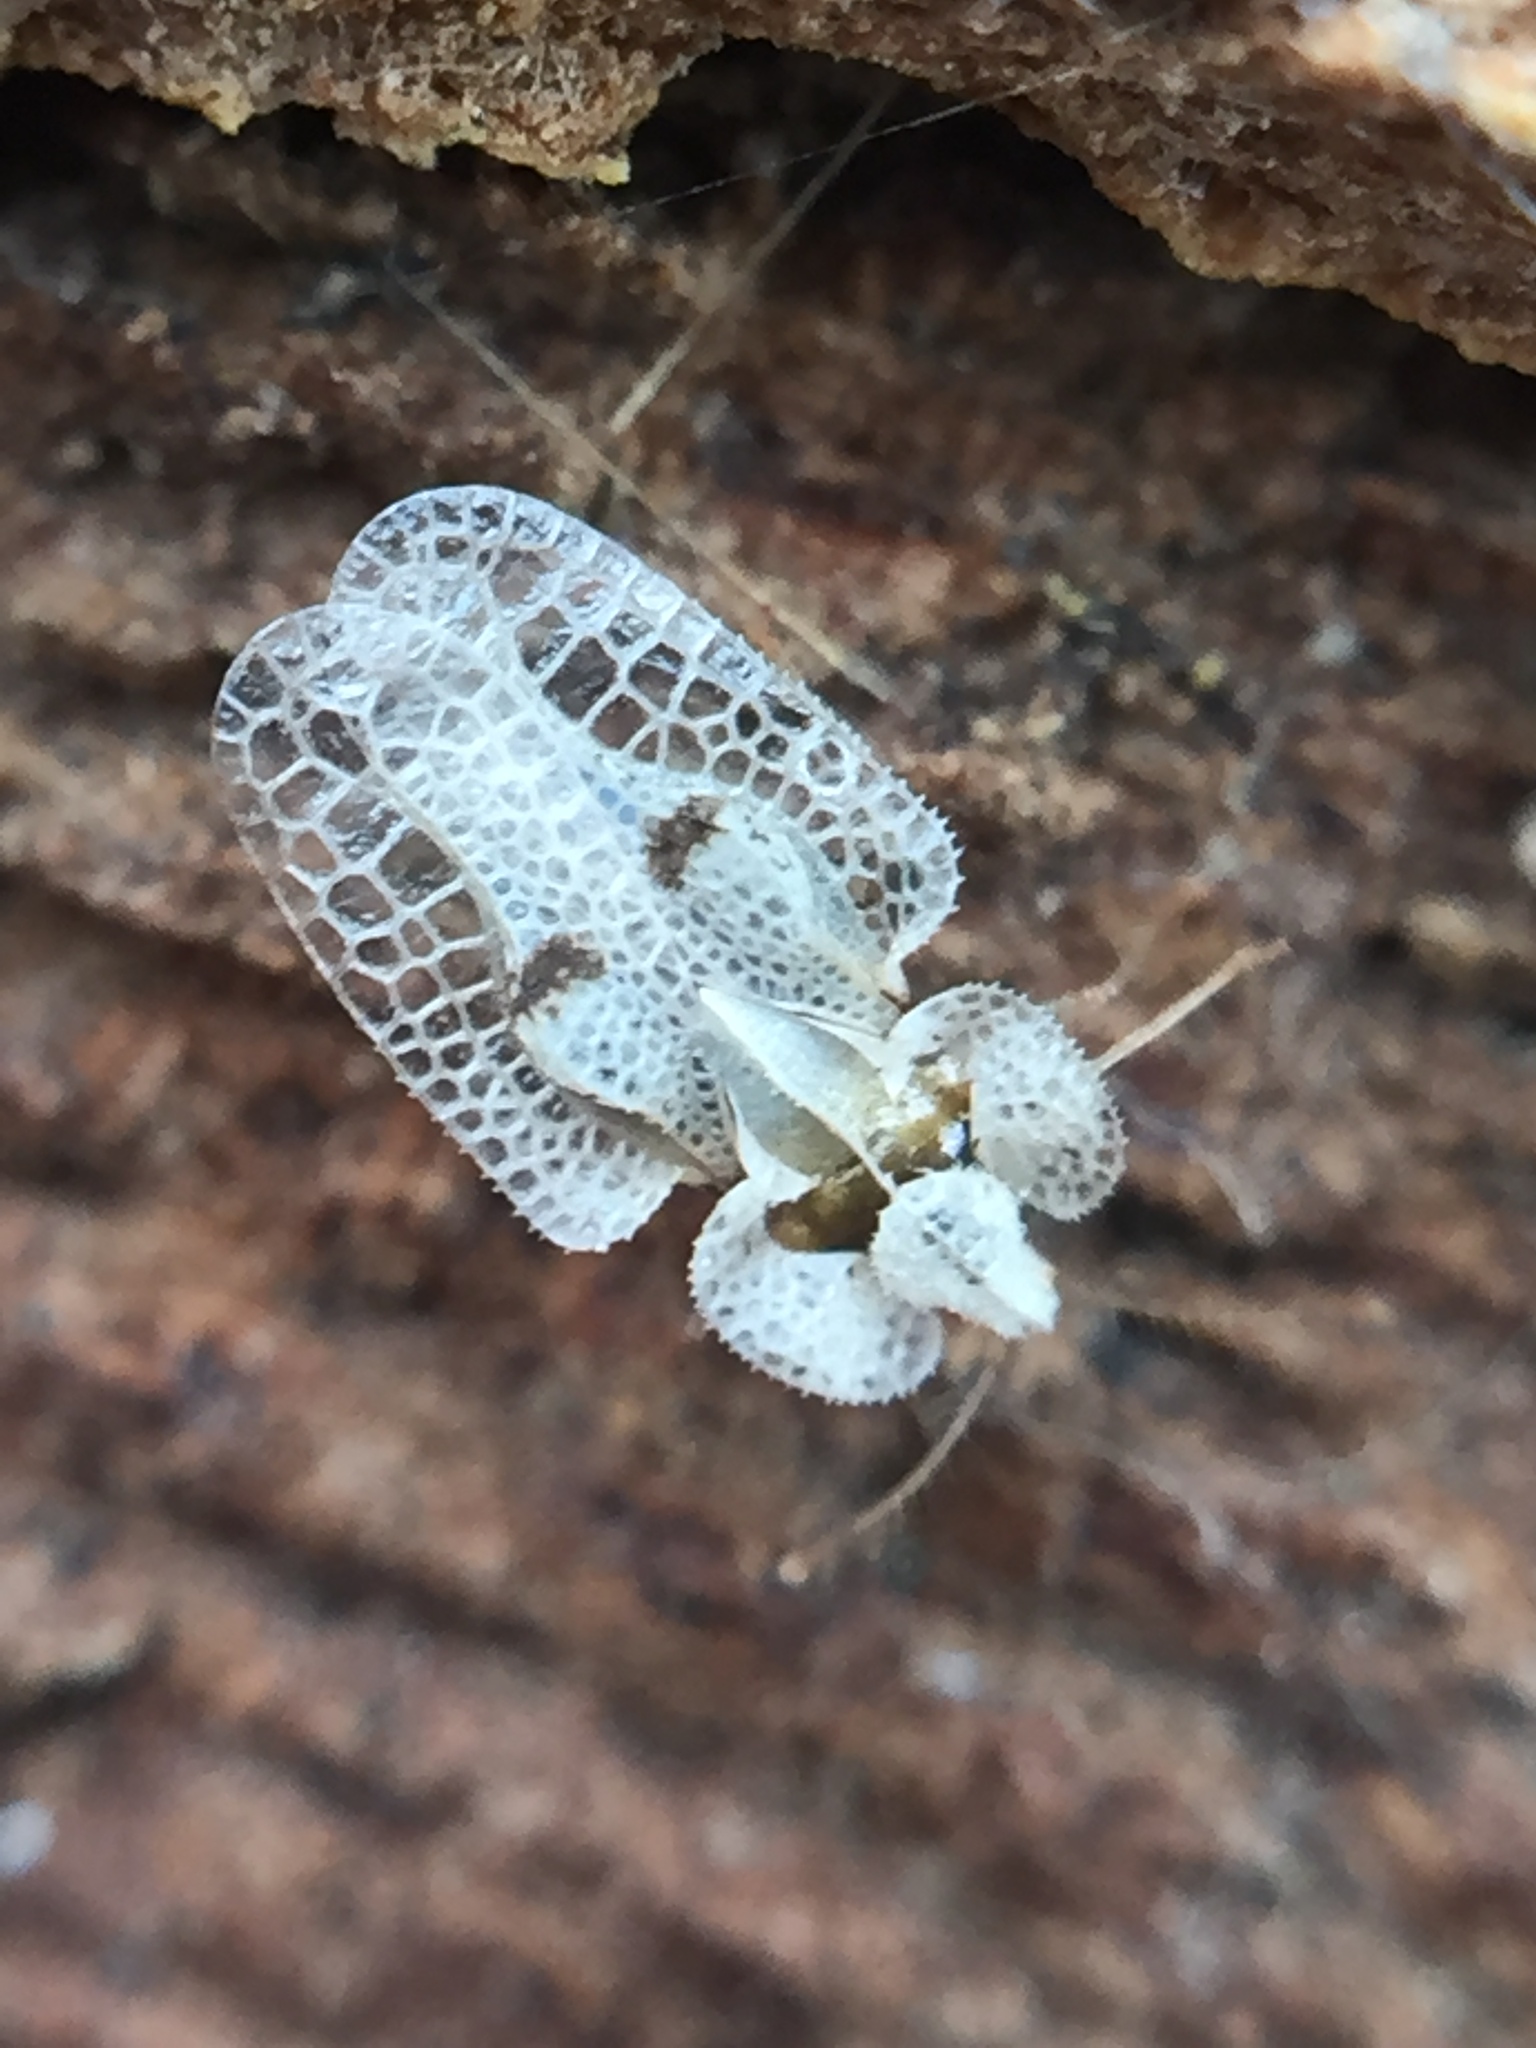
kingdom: Animalia
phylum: Arthropoda
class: Insecta
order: Hemiptera
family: Tingidae
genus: Corythucha
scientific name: Corythucha ciliata
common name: Sycamore lace bug
